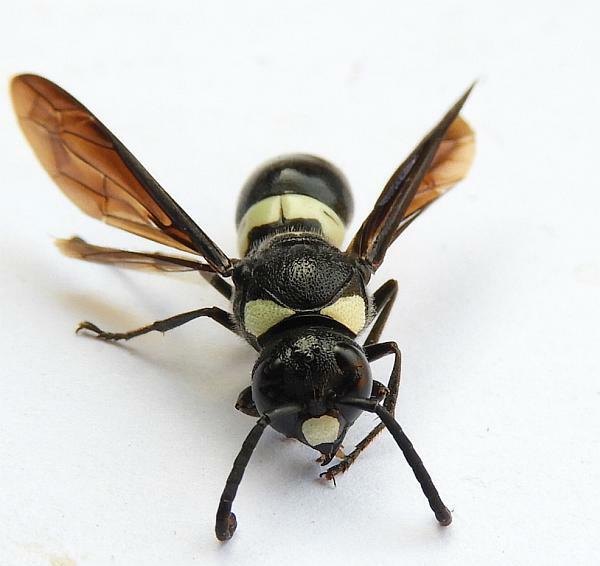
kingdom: Animalia
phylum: Arthropoda
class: Insecta
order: Hymenoptera
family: Eumenidae
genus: Monobia
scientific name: Monobia quadridens
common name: Four-toothed mason wasp
